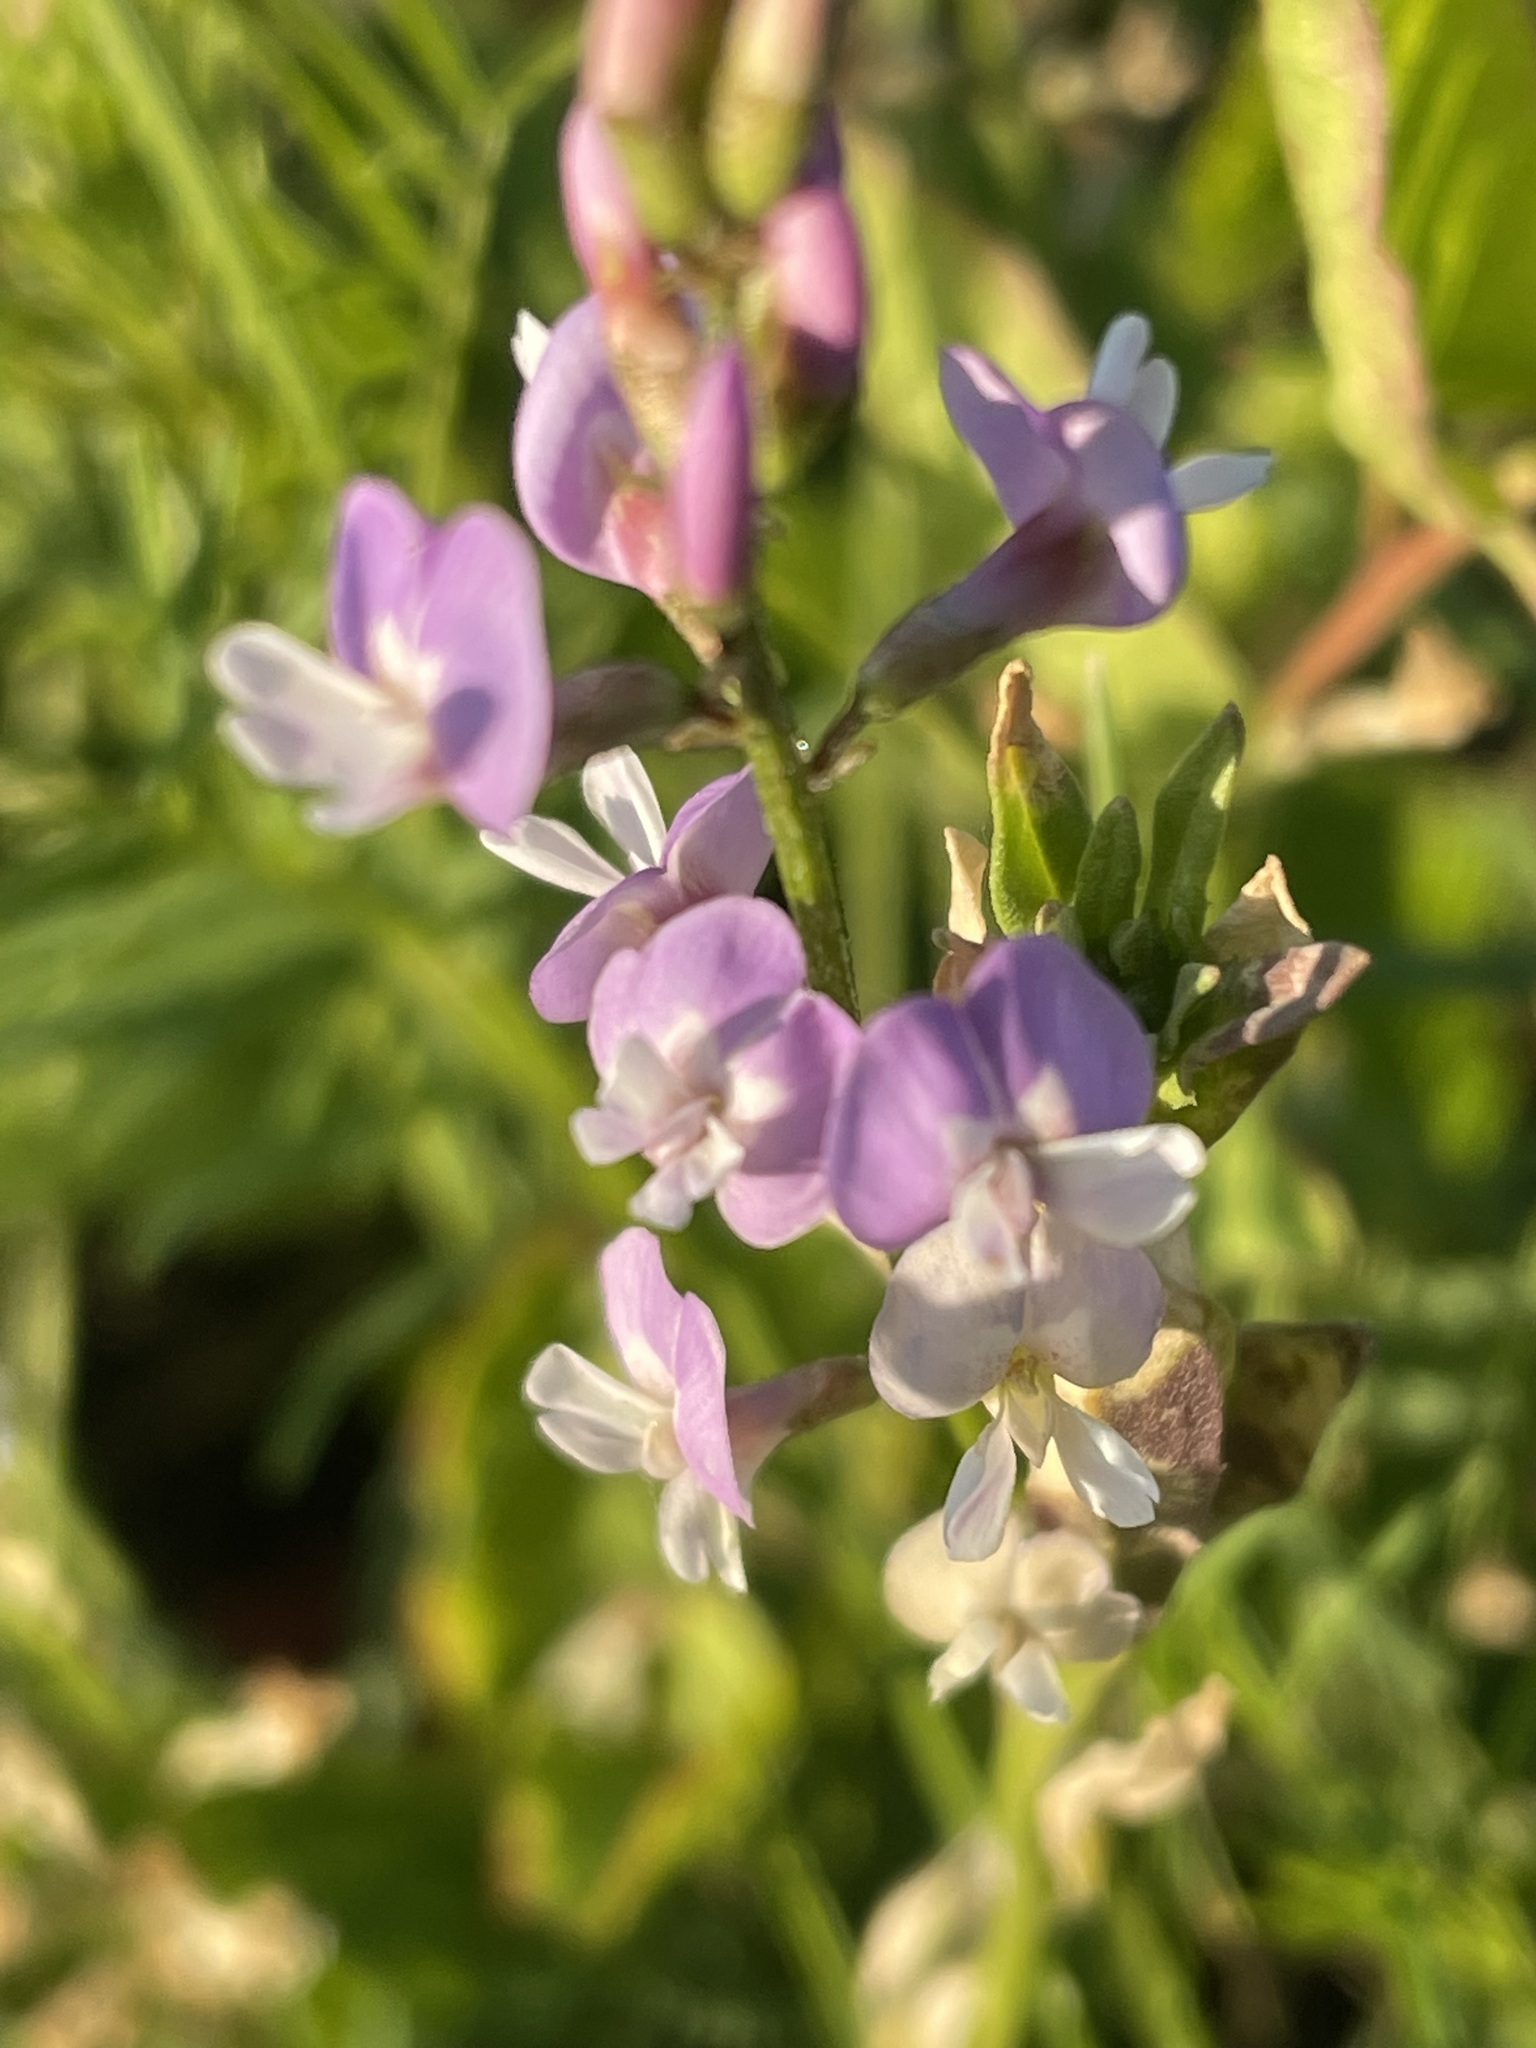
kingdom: Plantae
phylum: Tracheophyta
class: Magnoliopsida
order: Fabales
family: Fabaceae
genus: Astragalus
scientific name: Astragalus austriacus
